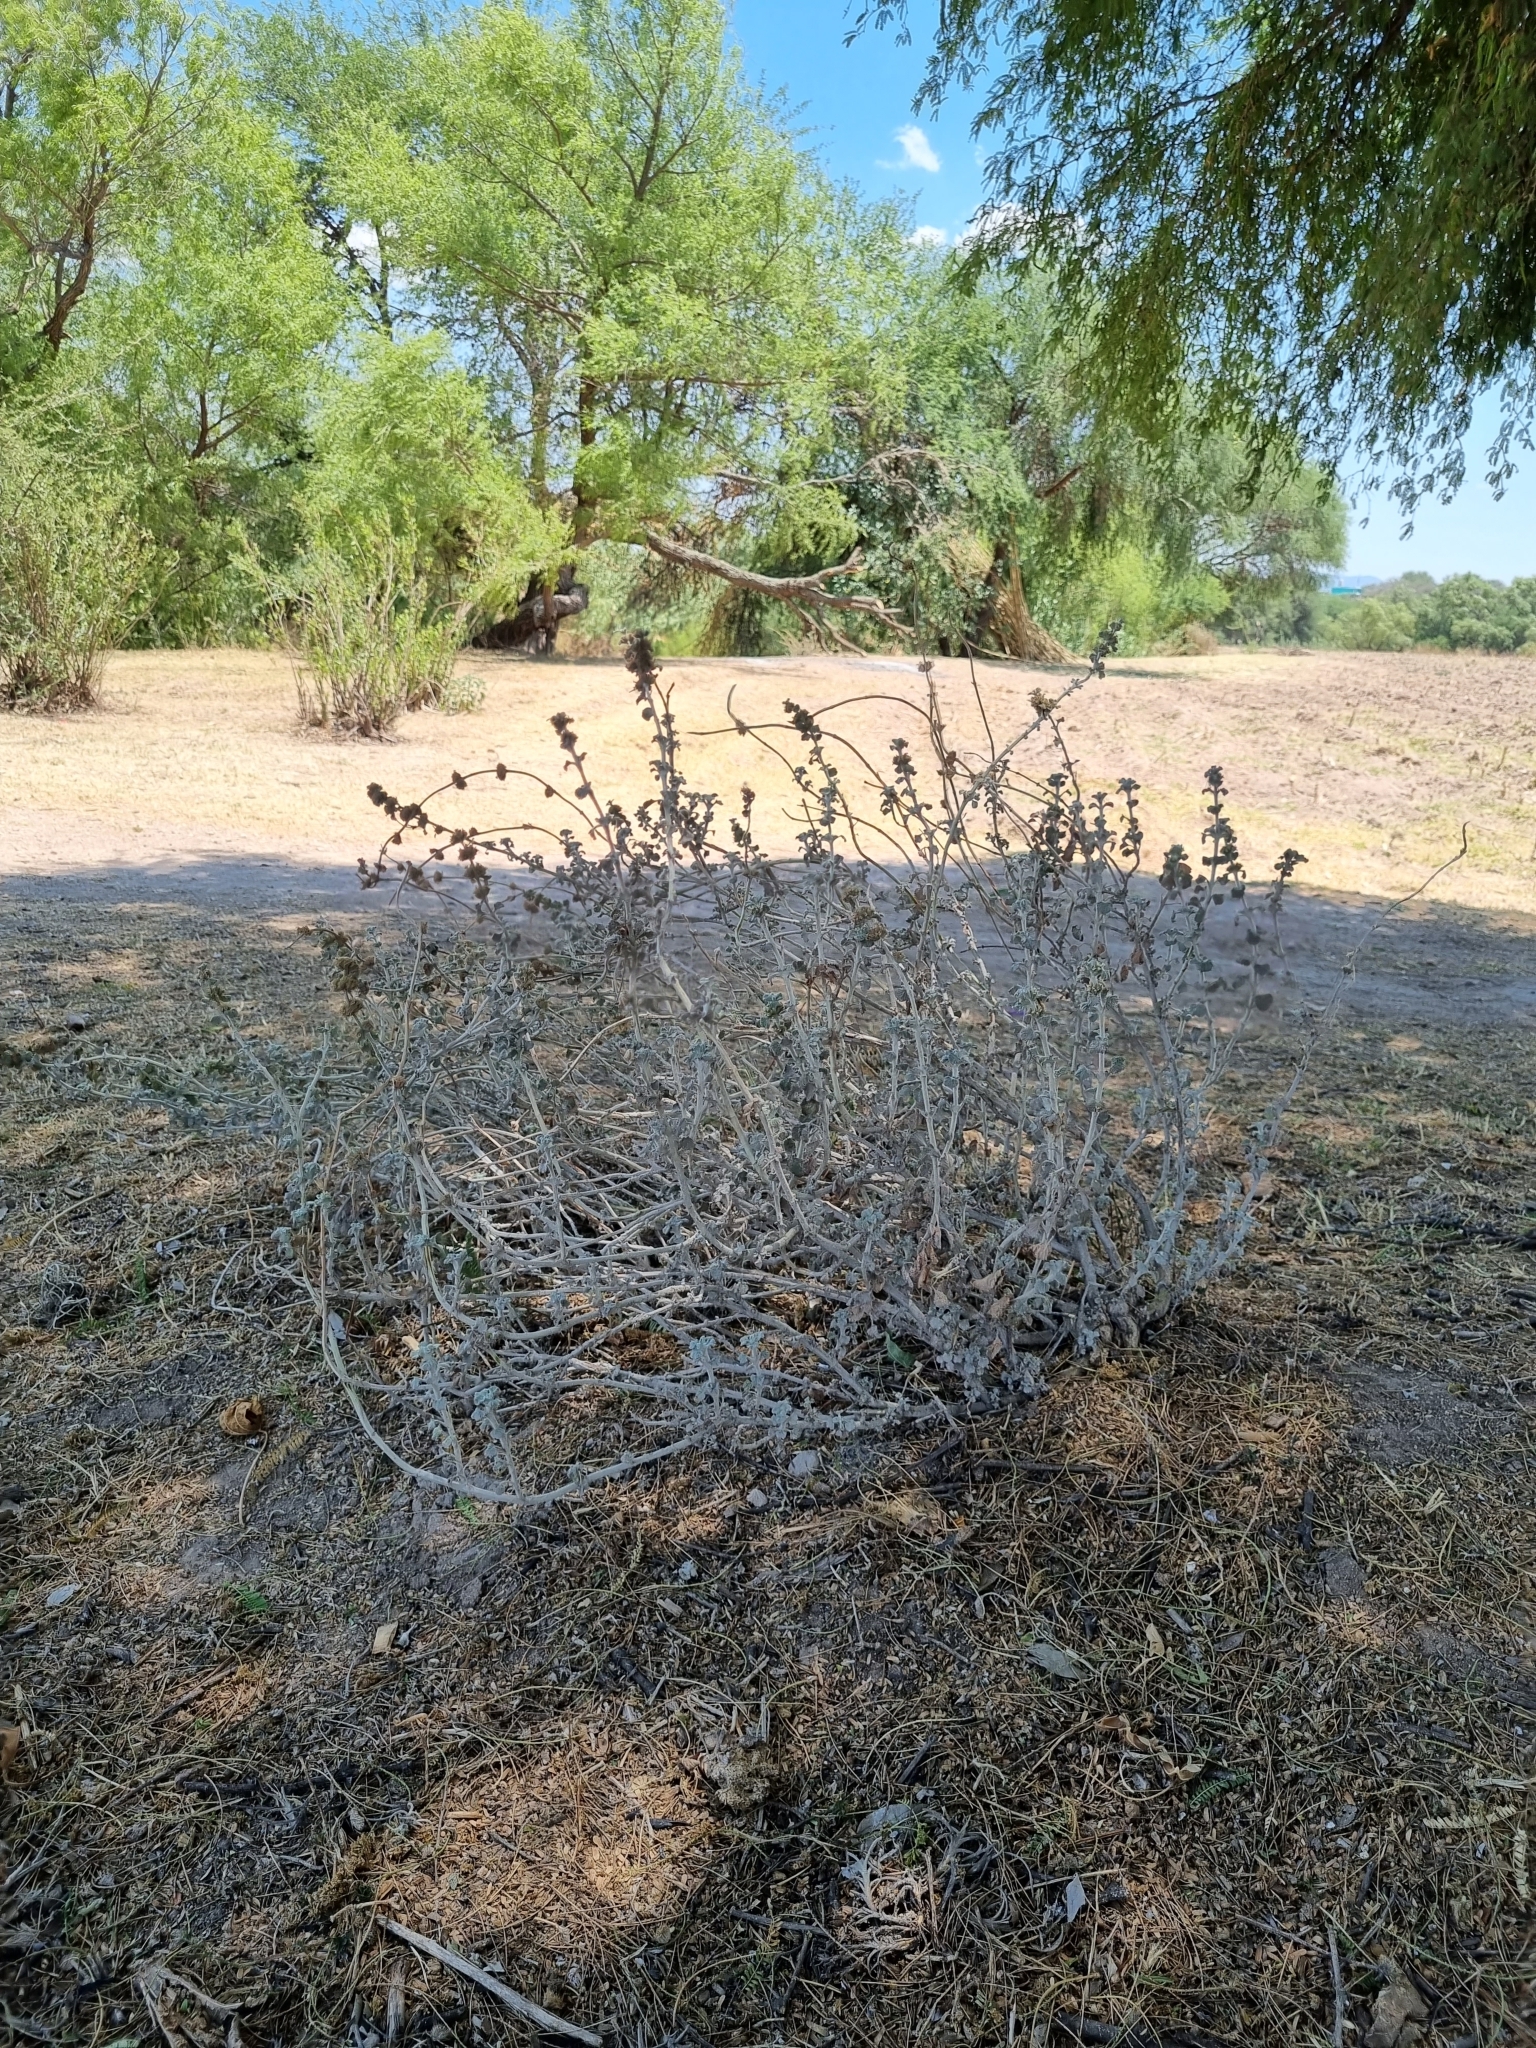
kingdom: Plantae
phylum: Tracheophyta
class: Magnoliopsida
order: Lamiales
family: Lamiaceae
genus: Marrubium
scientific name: Marrubium vulgare
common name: Horehound
